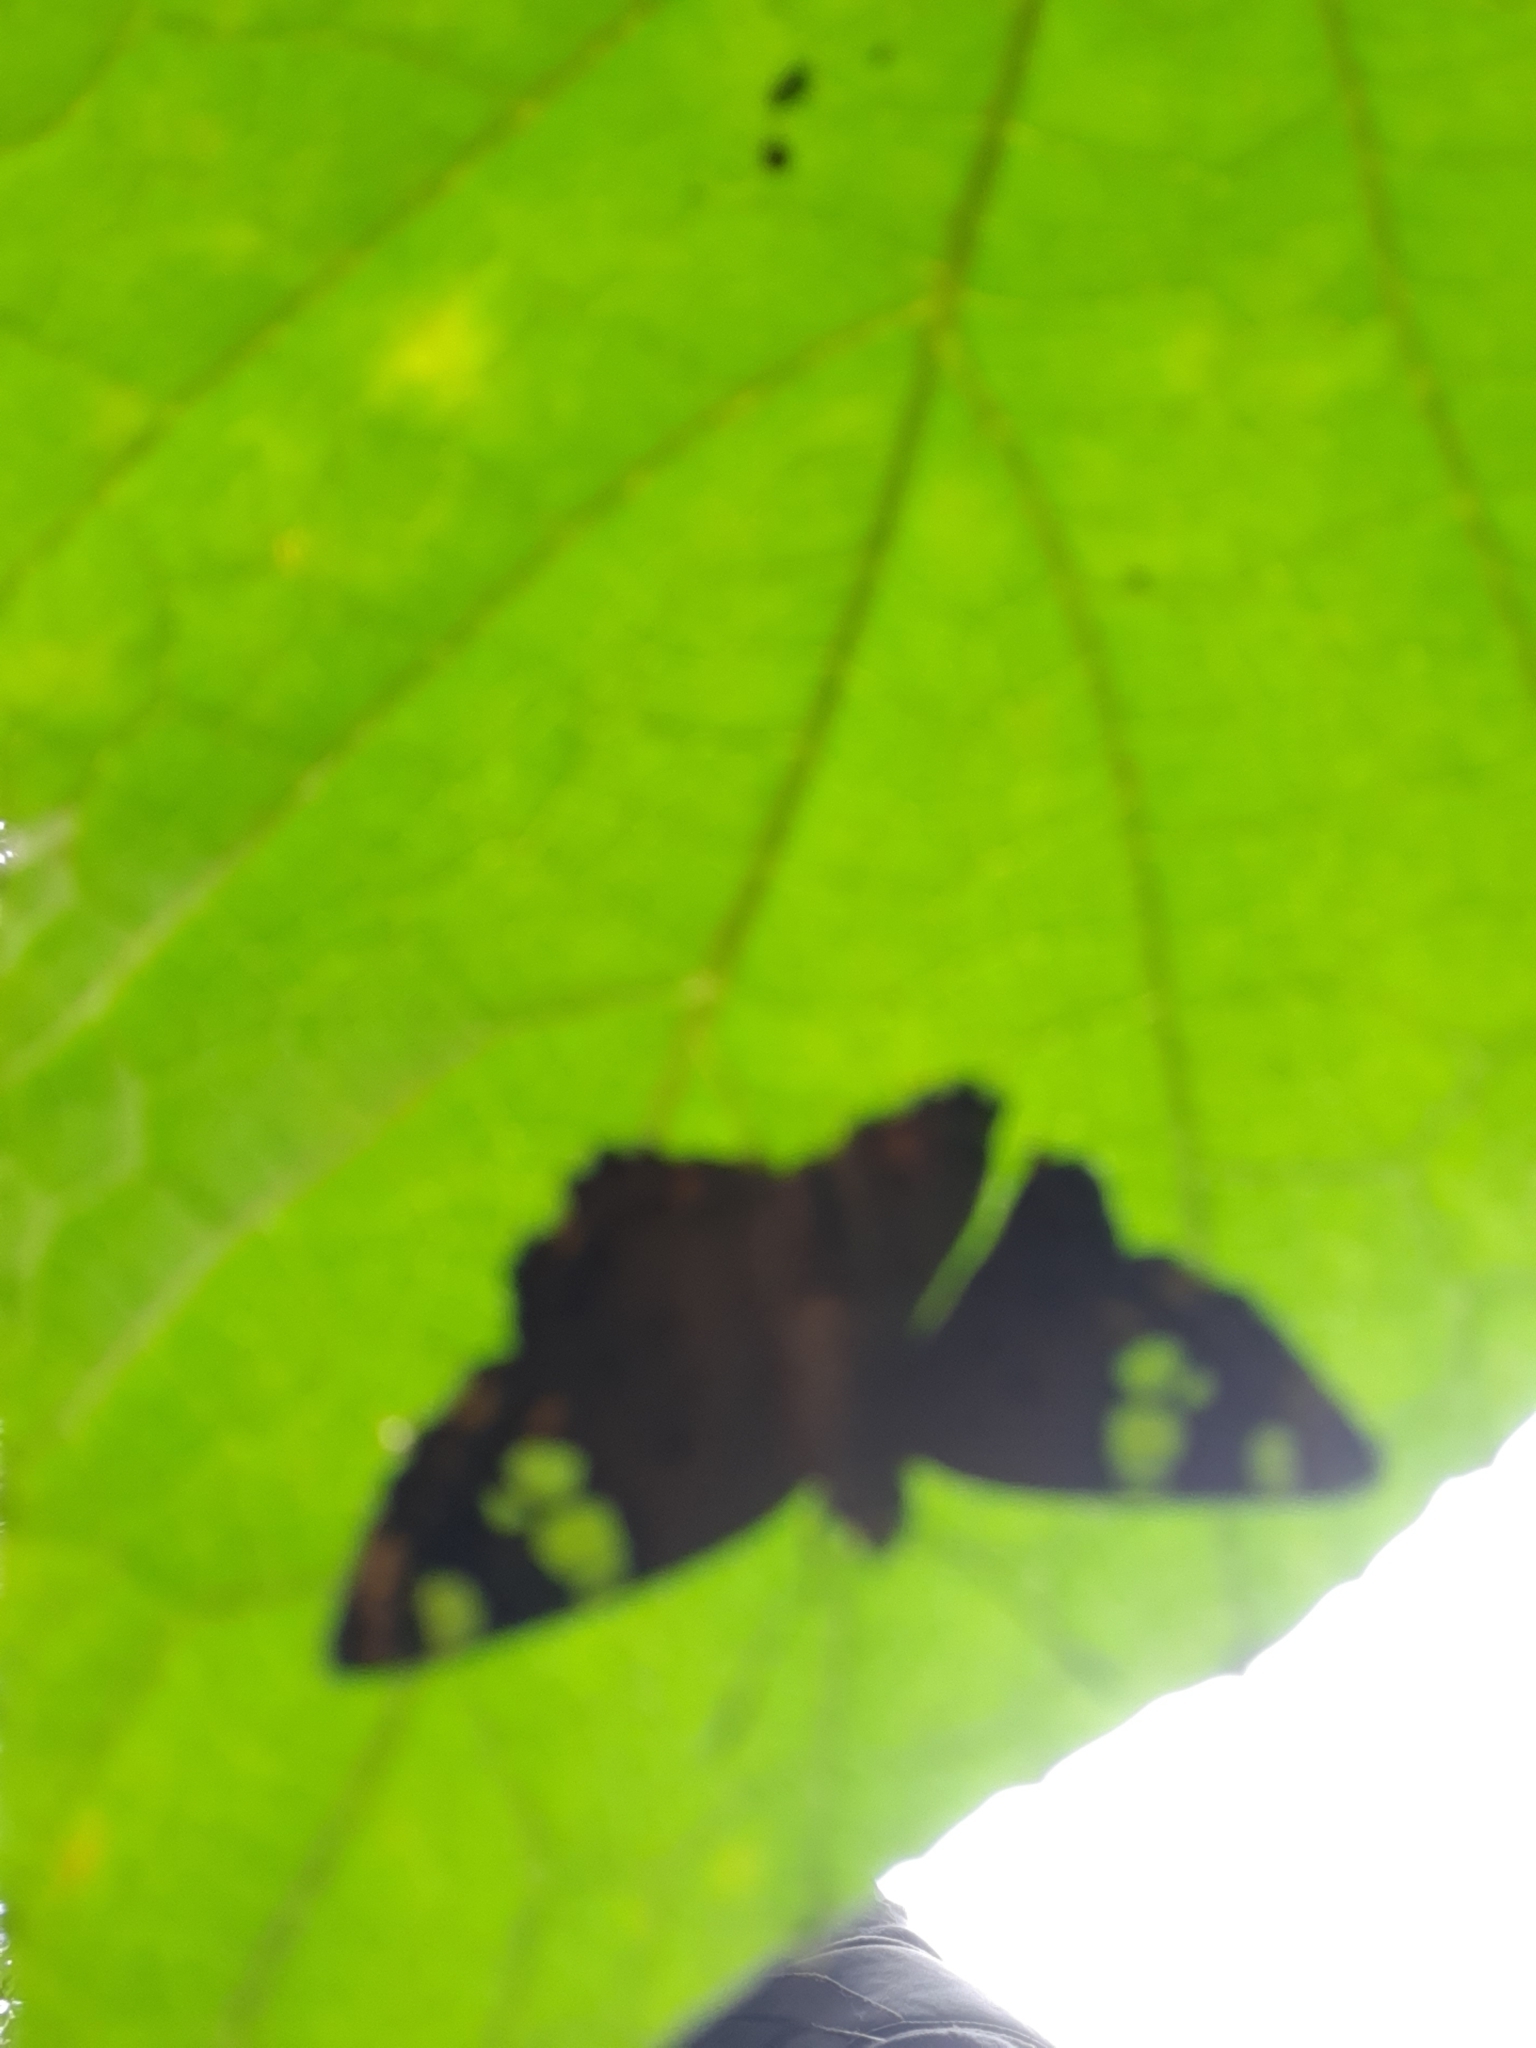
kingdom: Animalia
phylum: Arthropoda
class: Insecta
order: Lepidoptera
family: Hesperiidae
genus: Coladenia
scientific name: Coladenia
